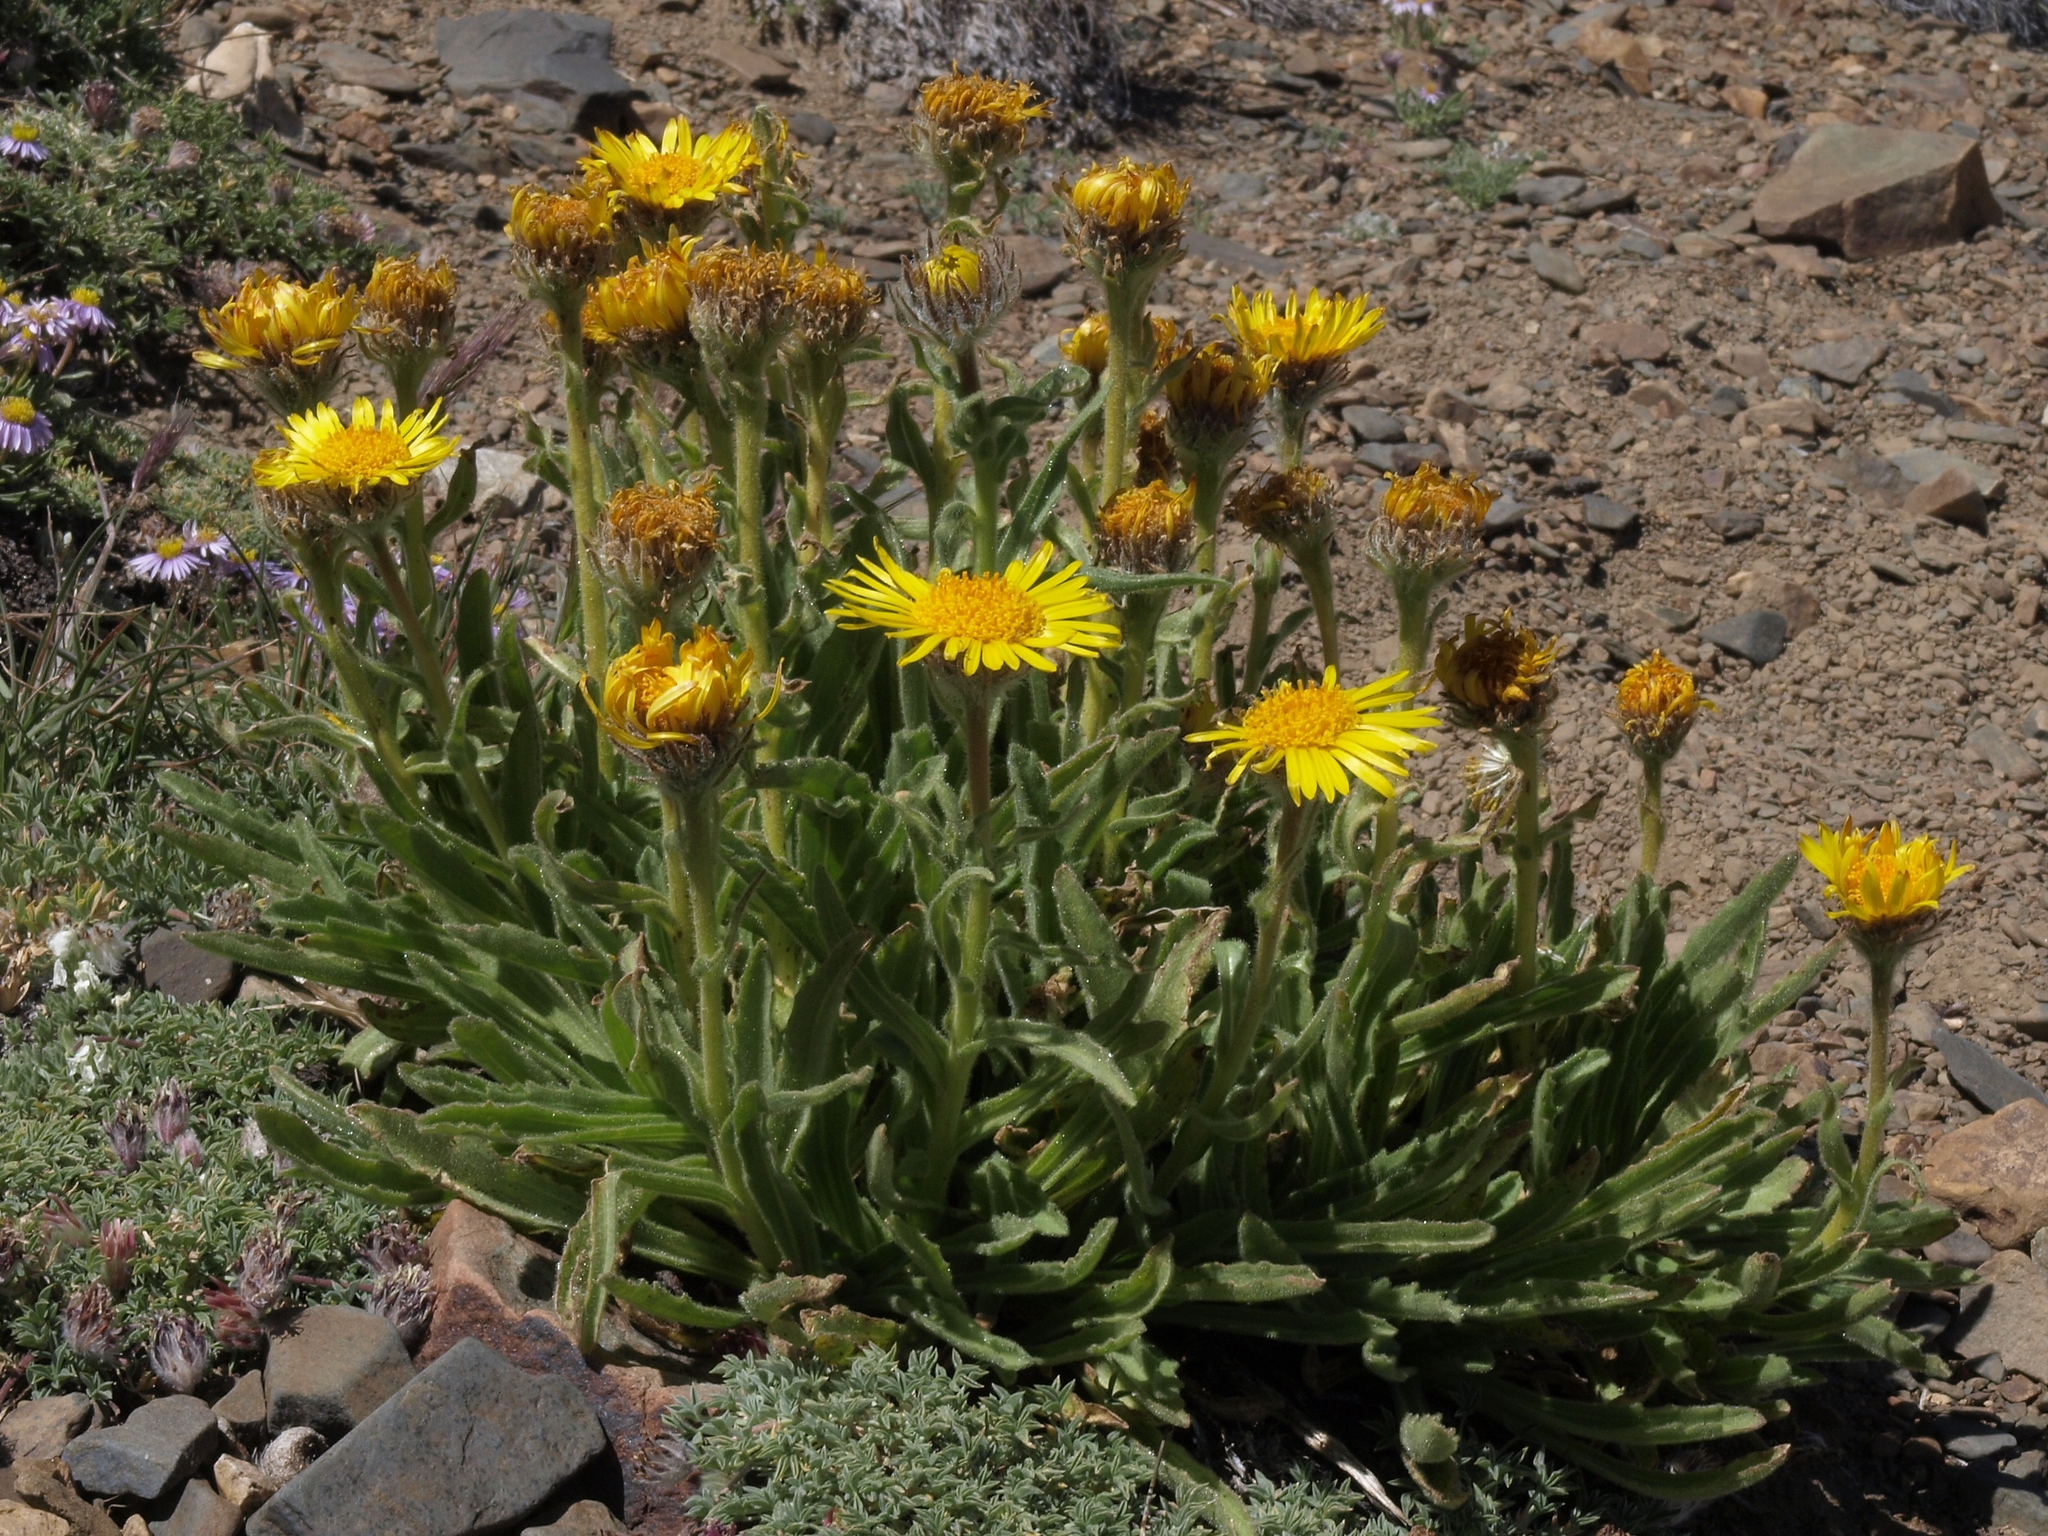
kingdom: Plantae
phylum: Tracheophyta
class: Magnoliopsida
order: Asterales
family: Asteraceae
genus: Hulsea
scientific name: Hulsea algida
